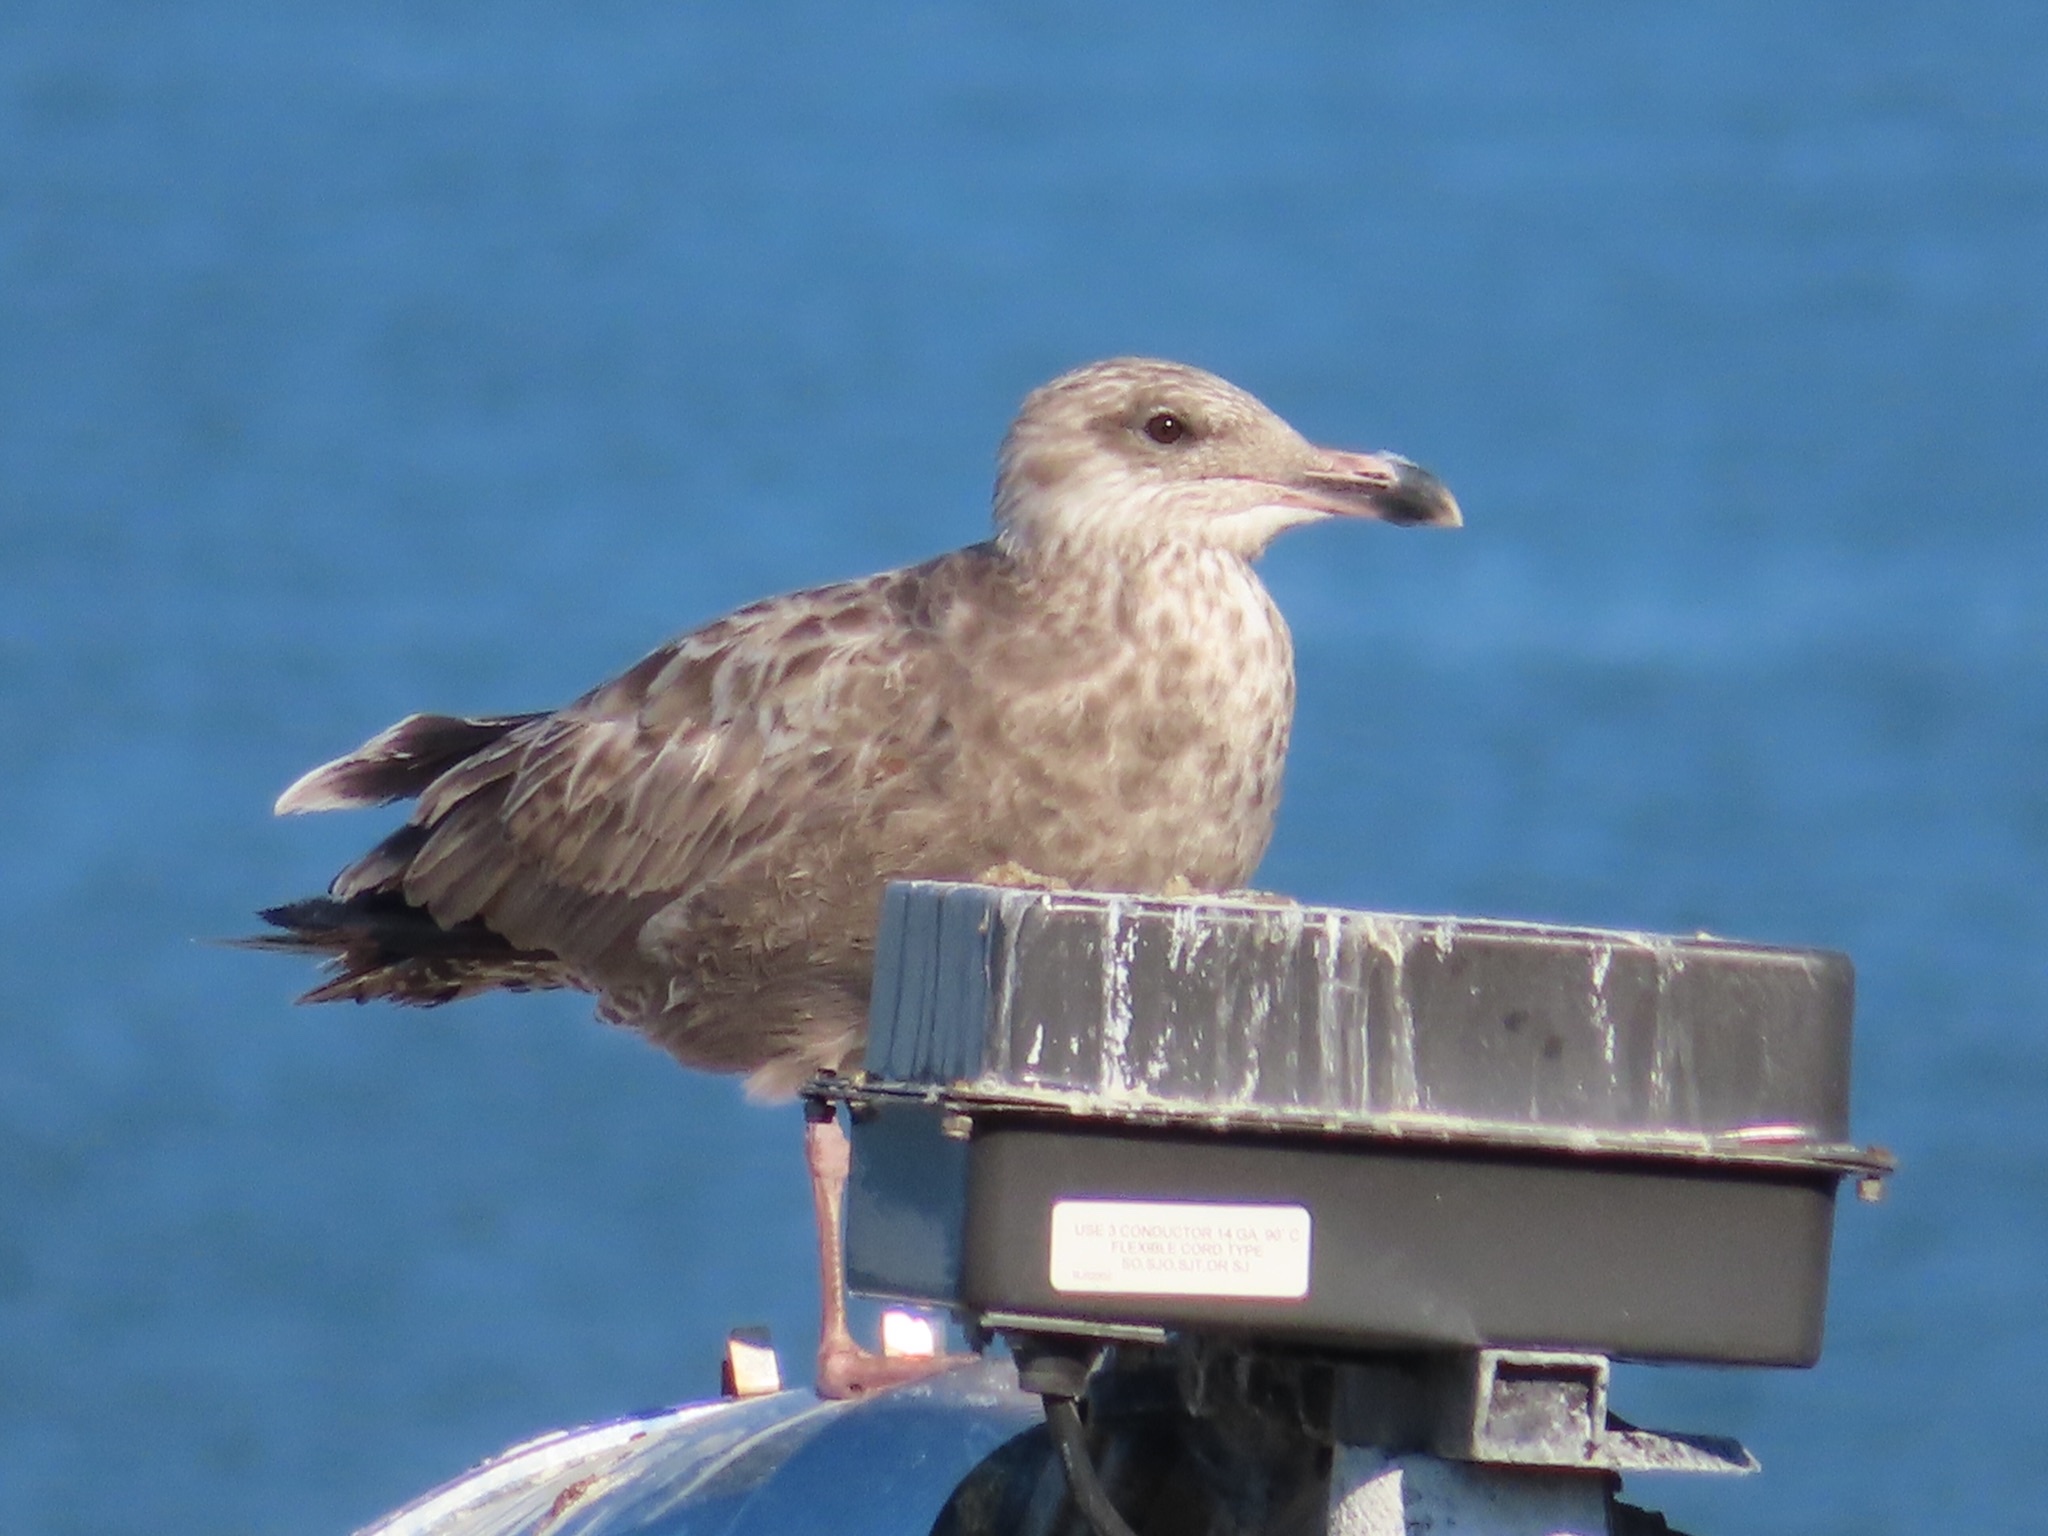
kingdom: Animalia
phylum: Chordata
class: Aves
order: Charadriiformes
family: Laridae
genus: Larus
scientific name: Larus argentatus
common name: Herring gull
